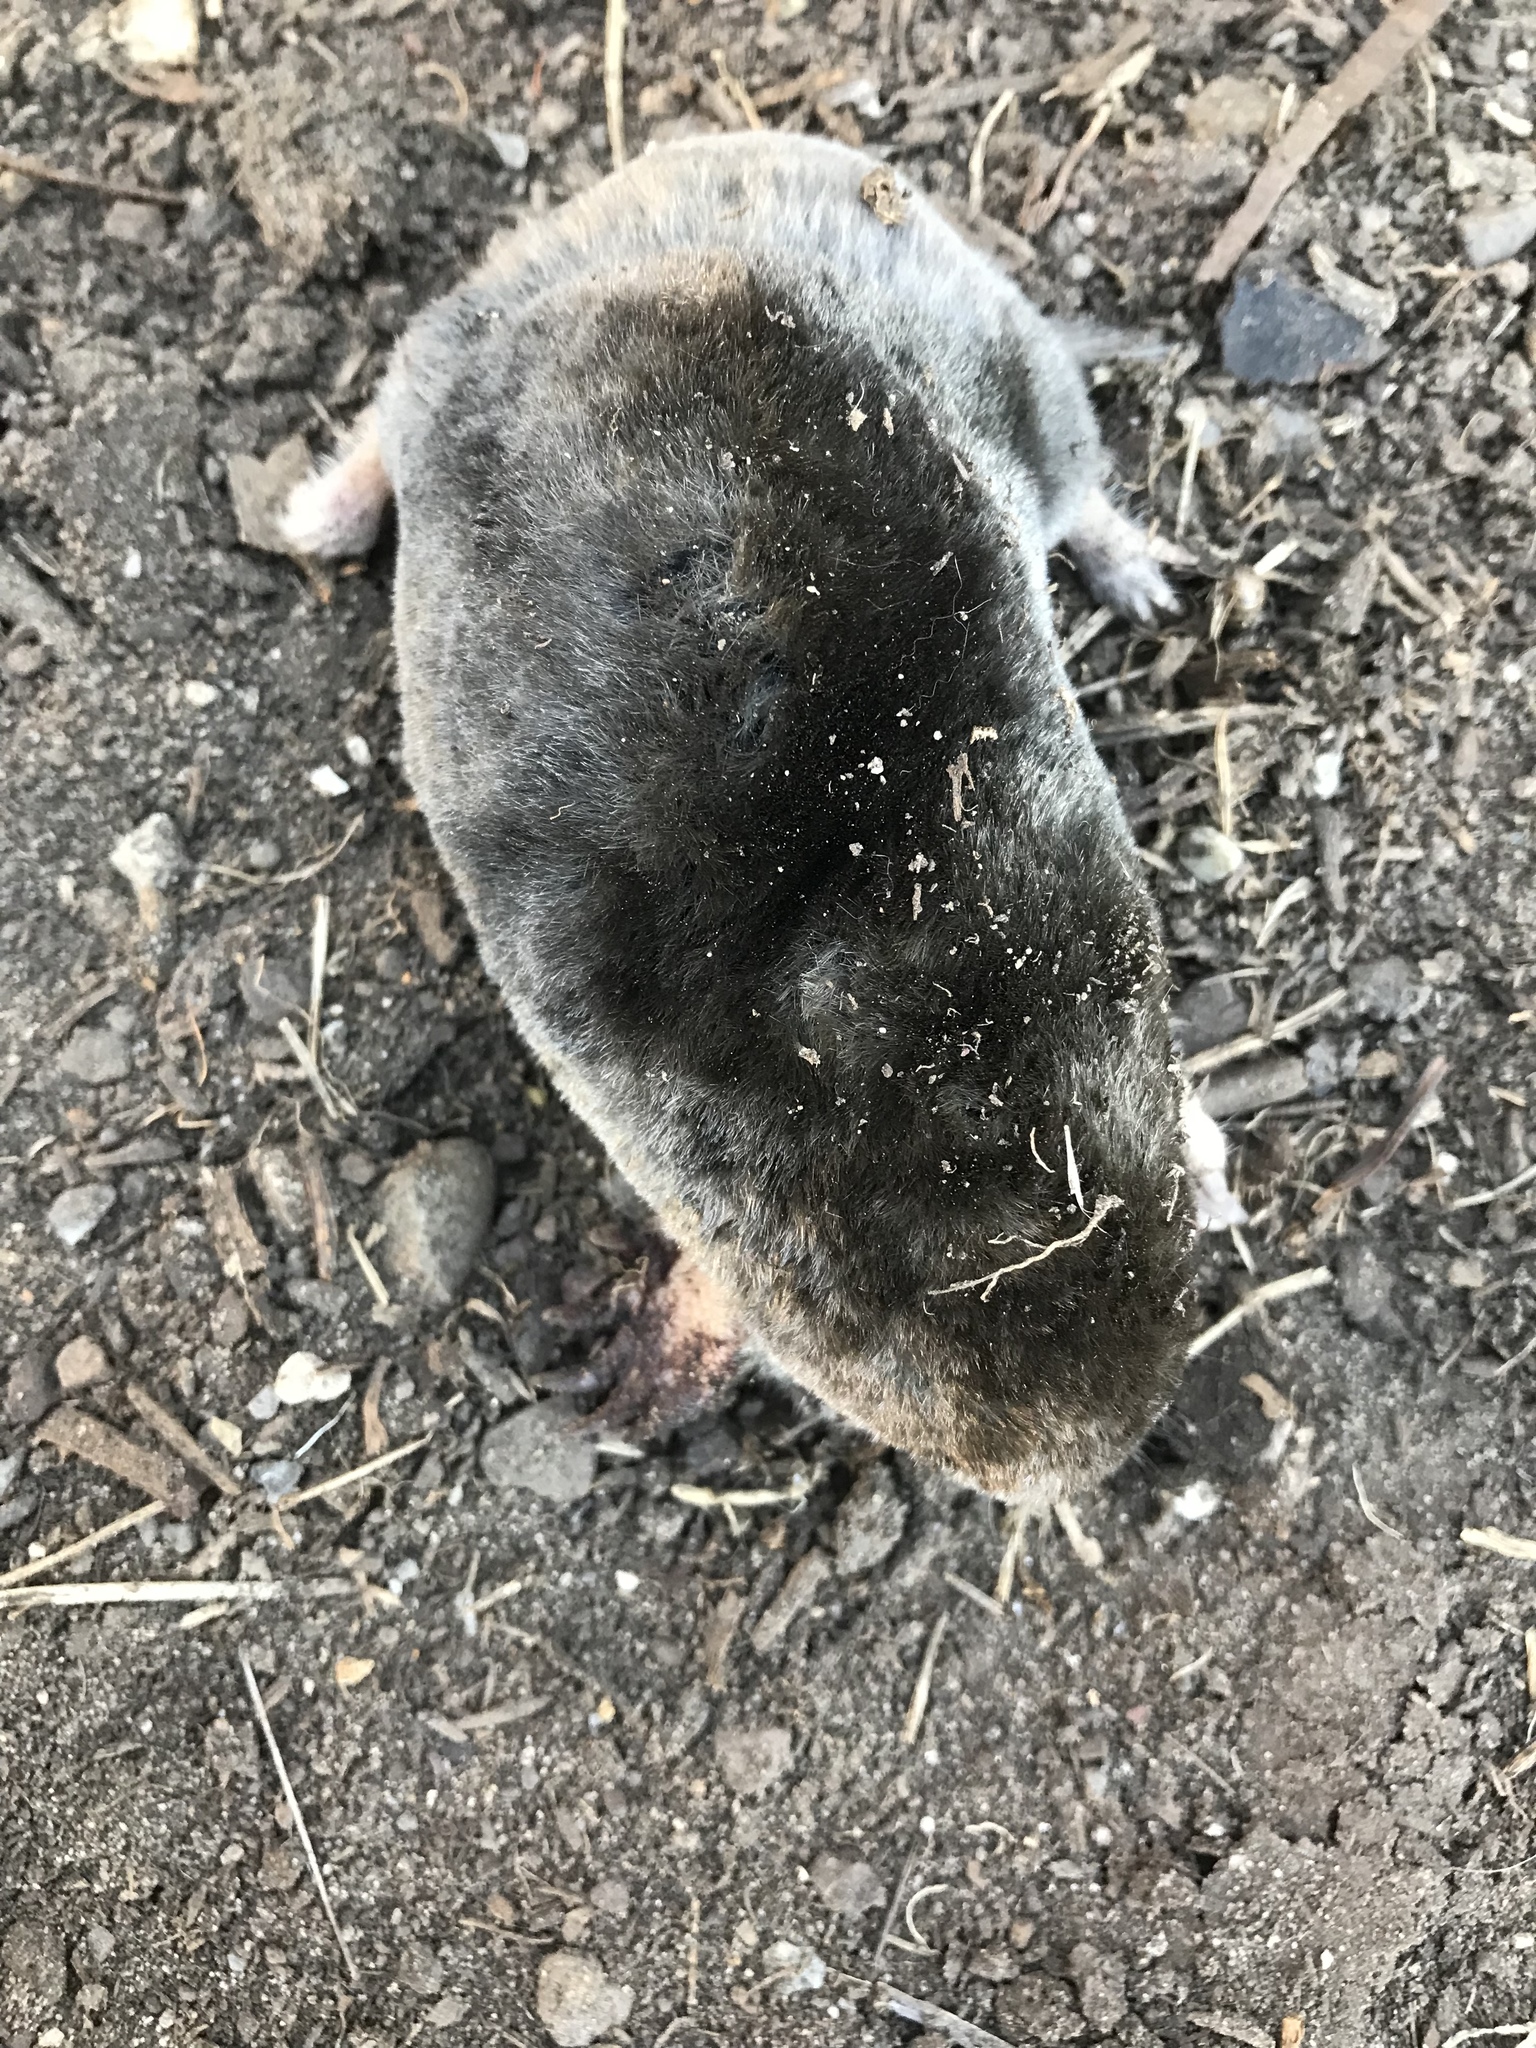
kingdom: Animalia
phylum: Chordata
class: Mammalia
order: Soricomorpha
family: Talpidae
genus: Scapanus
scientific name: Scapanus latimanus
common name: Broad-footed mole
